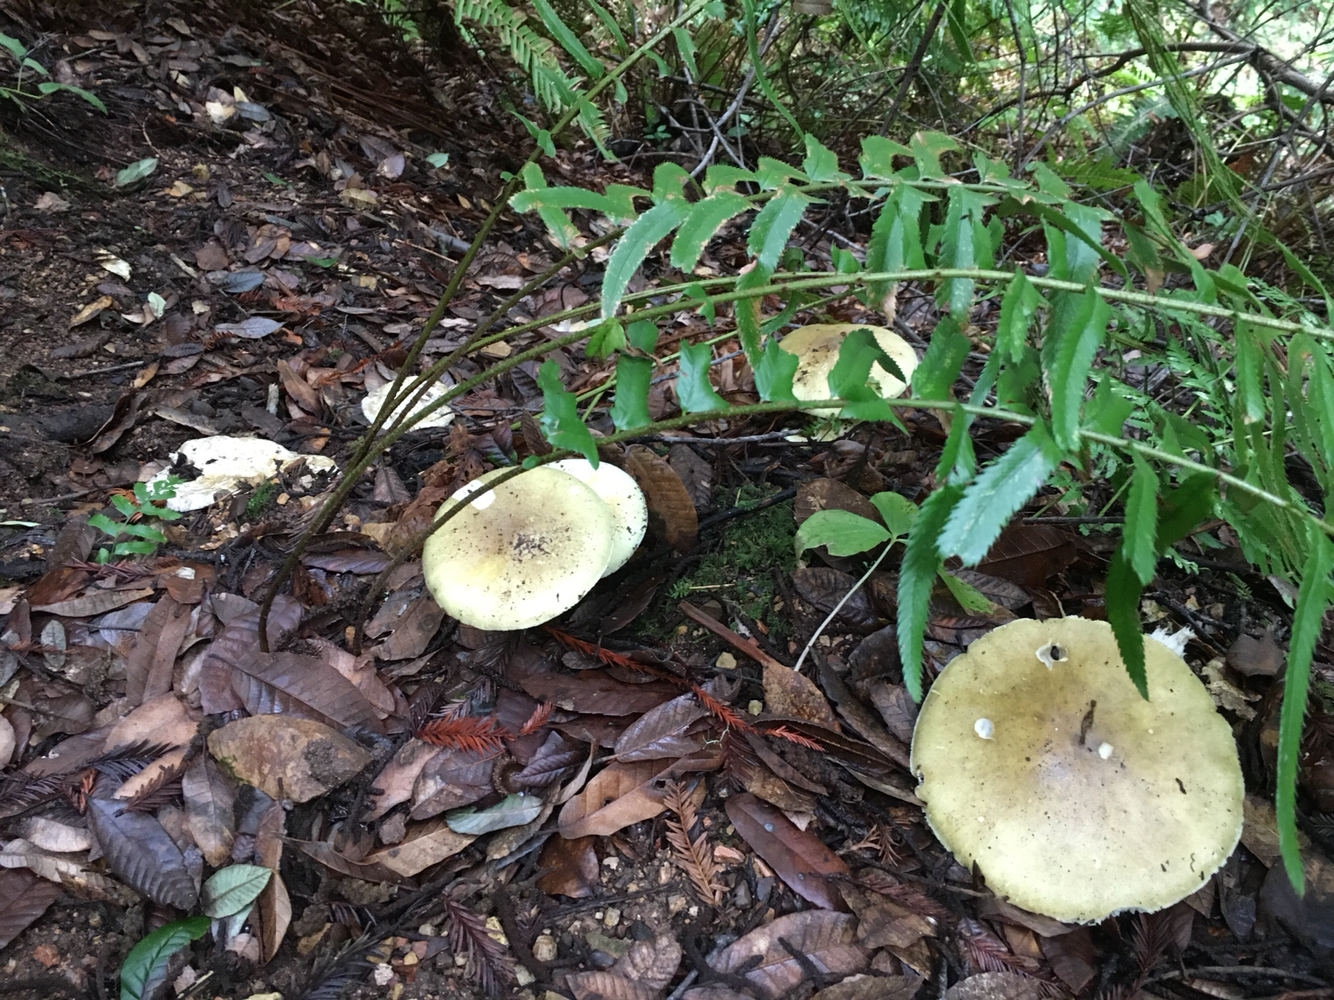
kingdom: Fungi
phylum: Basidiomycota
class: Agaricomycetes
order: Agaricales
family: Amanitaceae
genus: Amanita
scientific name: Amanita phalloides
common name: Death cap
